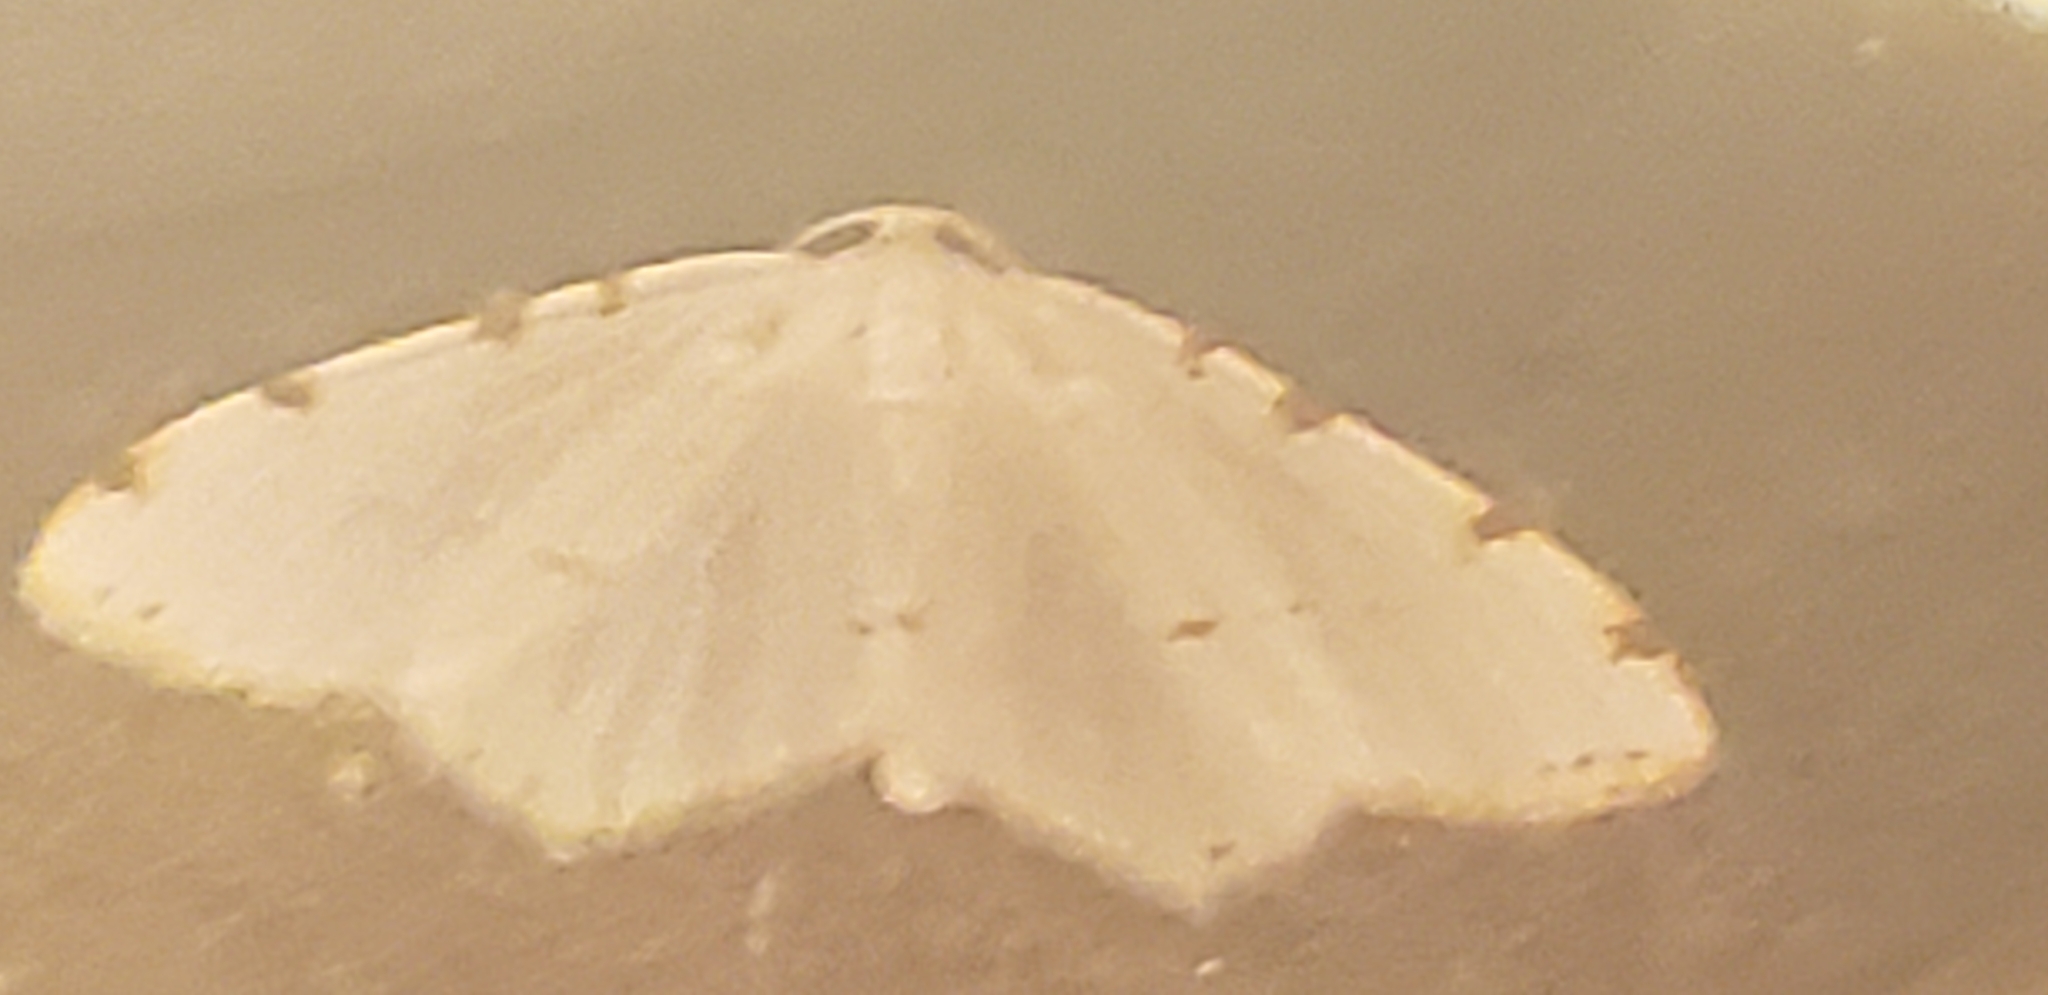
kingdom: Animalia
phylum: Arthropoda
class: Insecta
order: Lepidoptera
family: Geometridae
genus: Macaria
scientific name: Macaria pustularia
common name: Lesser maple spanworm moth
